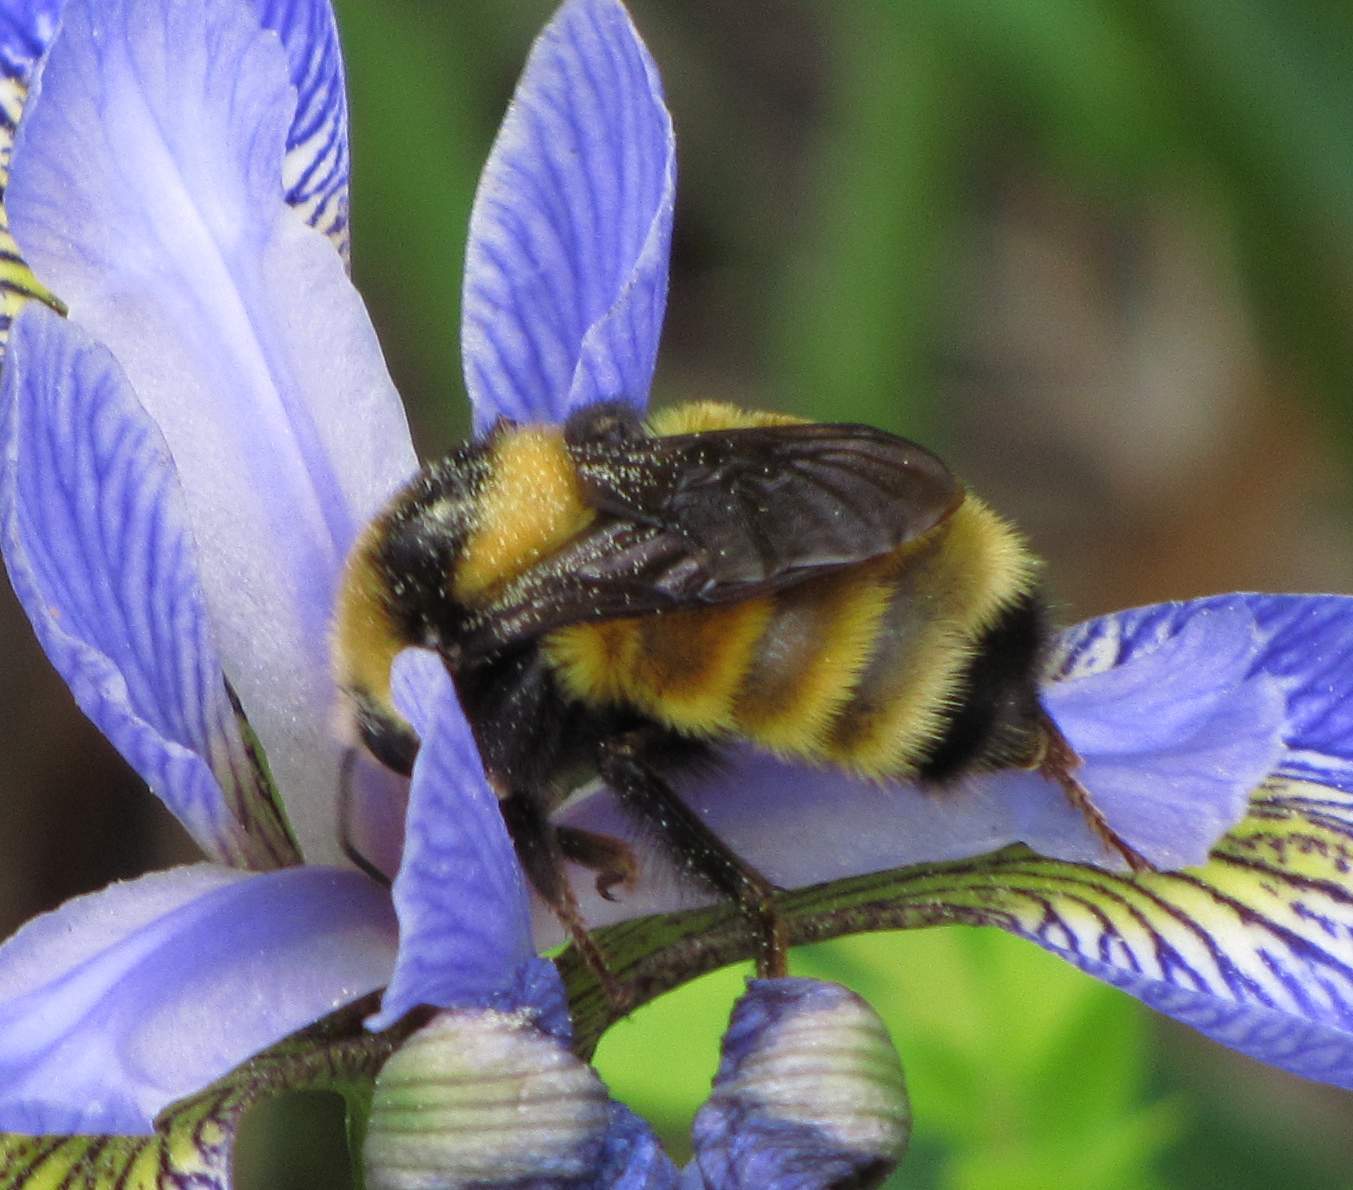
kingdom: Animalia
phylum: Arthropoda
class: Insecta
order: Hymenoptera
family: Apidae
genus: Bombus
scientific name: Bombus borealis
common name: Northern amber bumble bee
